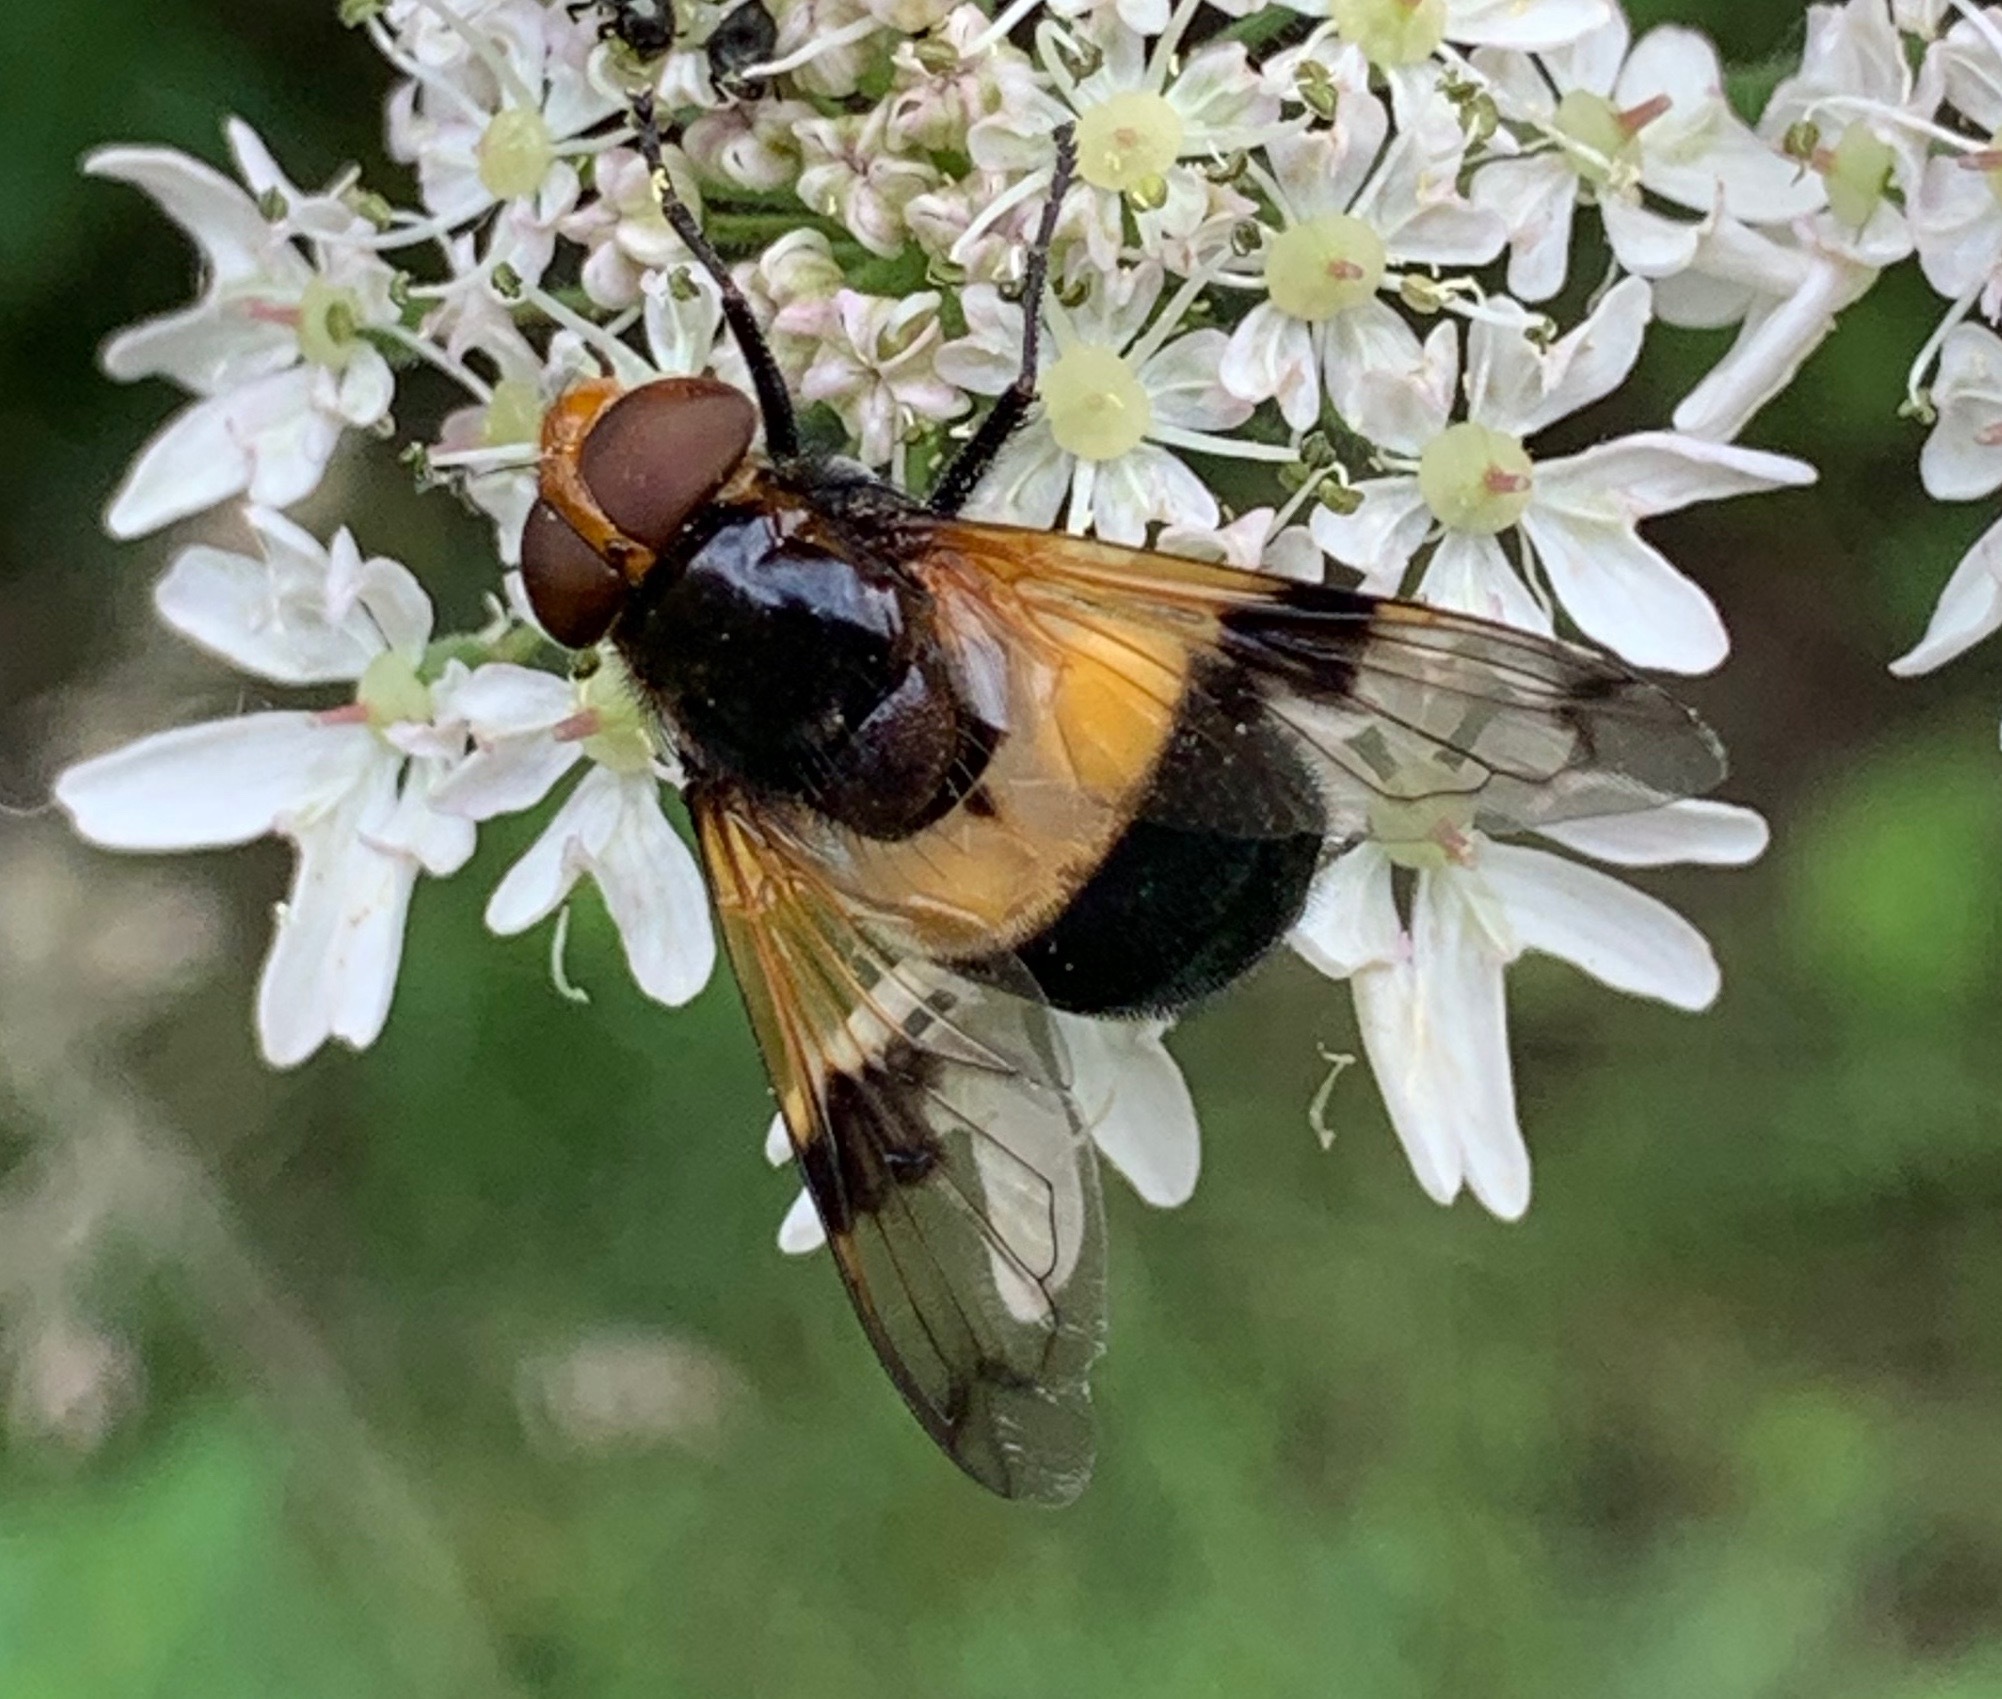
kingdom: Animalia
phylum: Arthropoda
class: Insecta
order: Diptera
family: Syrphidae
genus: Volucella
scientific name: Volucella pellucens
